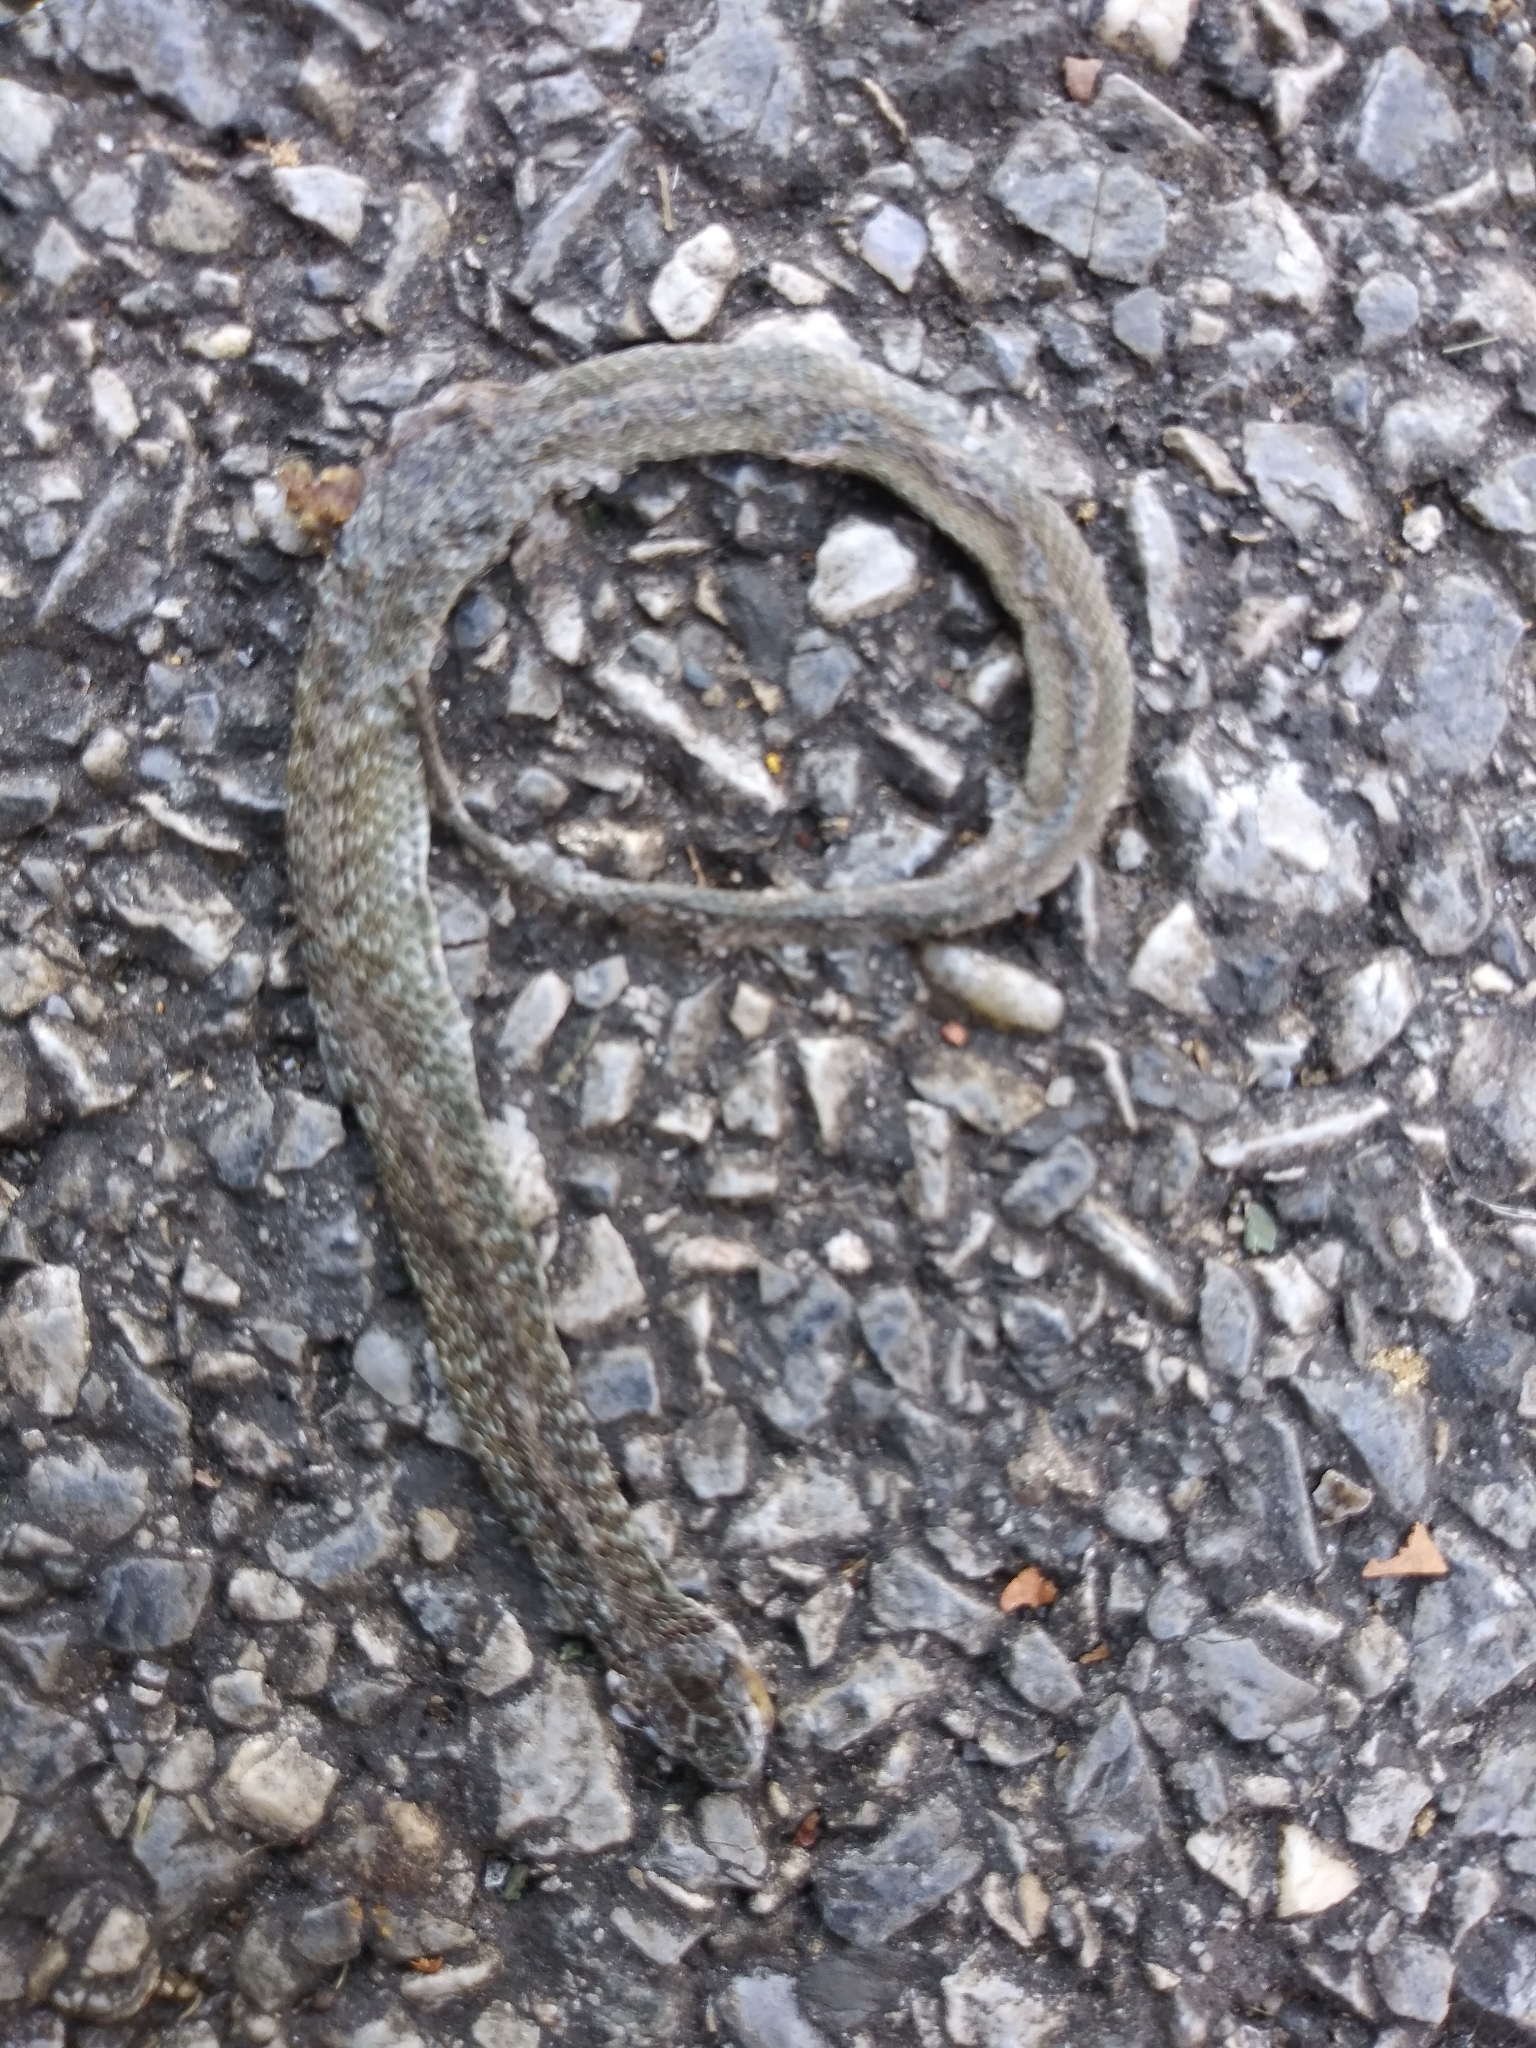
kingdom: Animalia
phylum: Chordata
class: Squamata
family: Colubridae
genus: Storeria
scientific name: Storeria dekayi
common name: (dekay’s) brown snake
